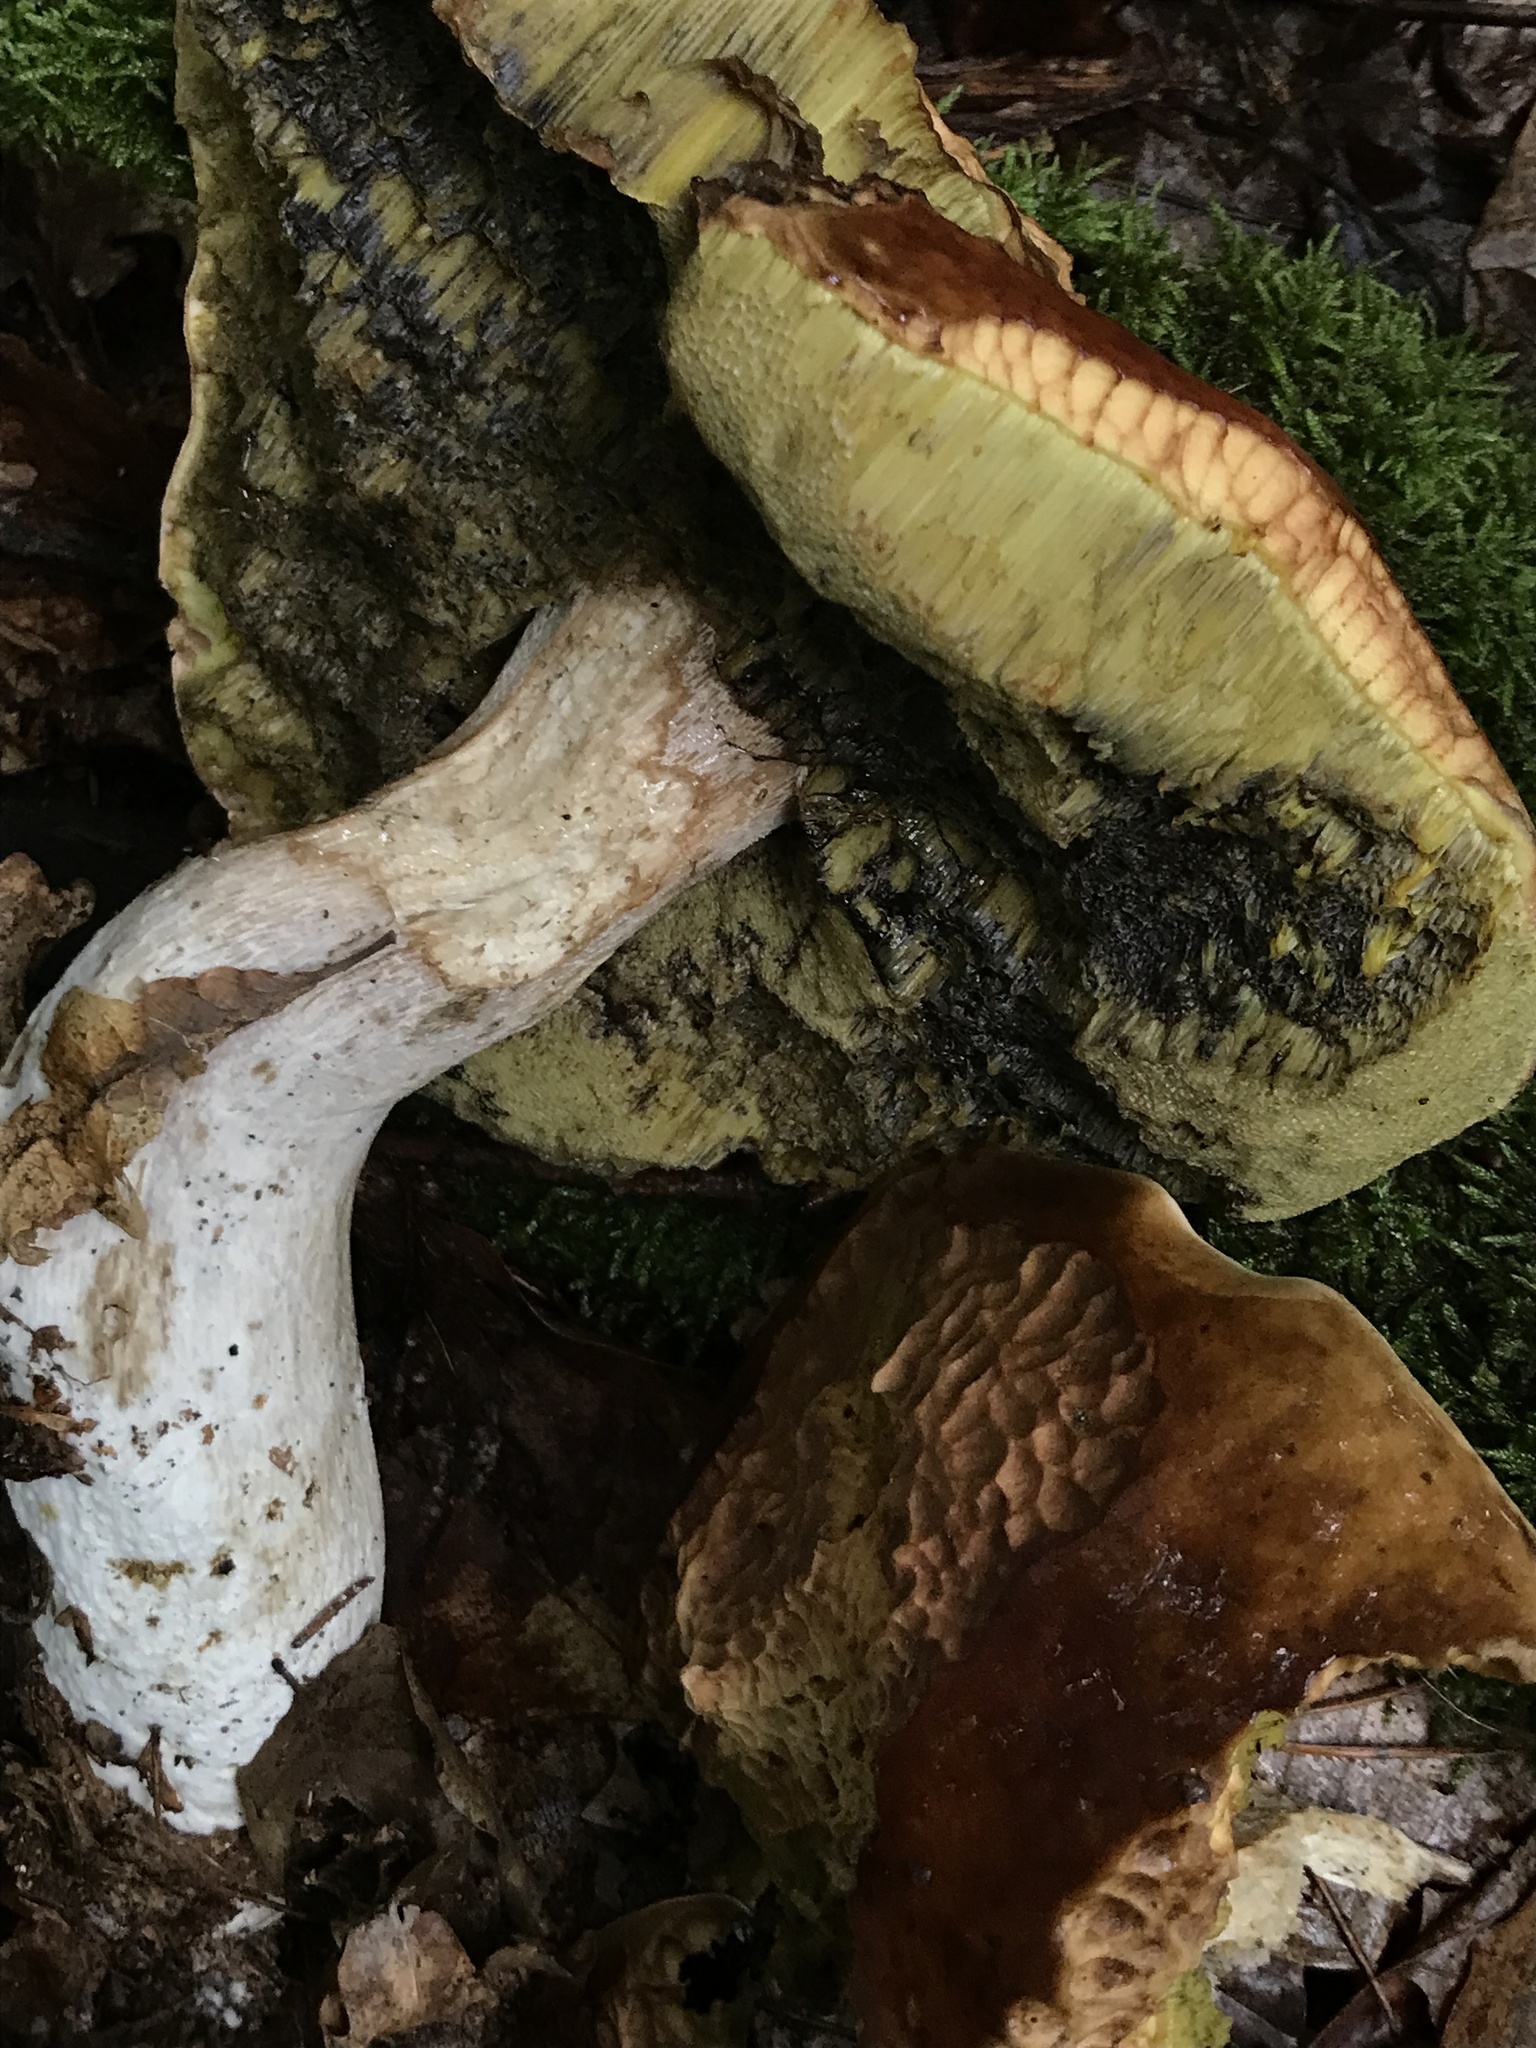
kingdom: Fungi
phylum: Basidiomycota
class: Agaricomycetes
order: Boletales
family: Boletaceae
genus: Boletus
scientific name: Boletus edulis
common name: Cep
